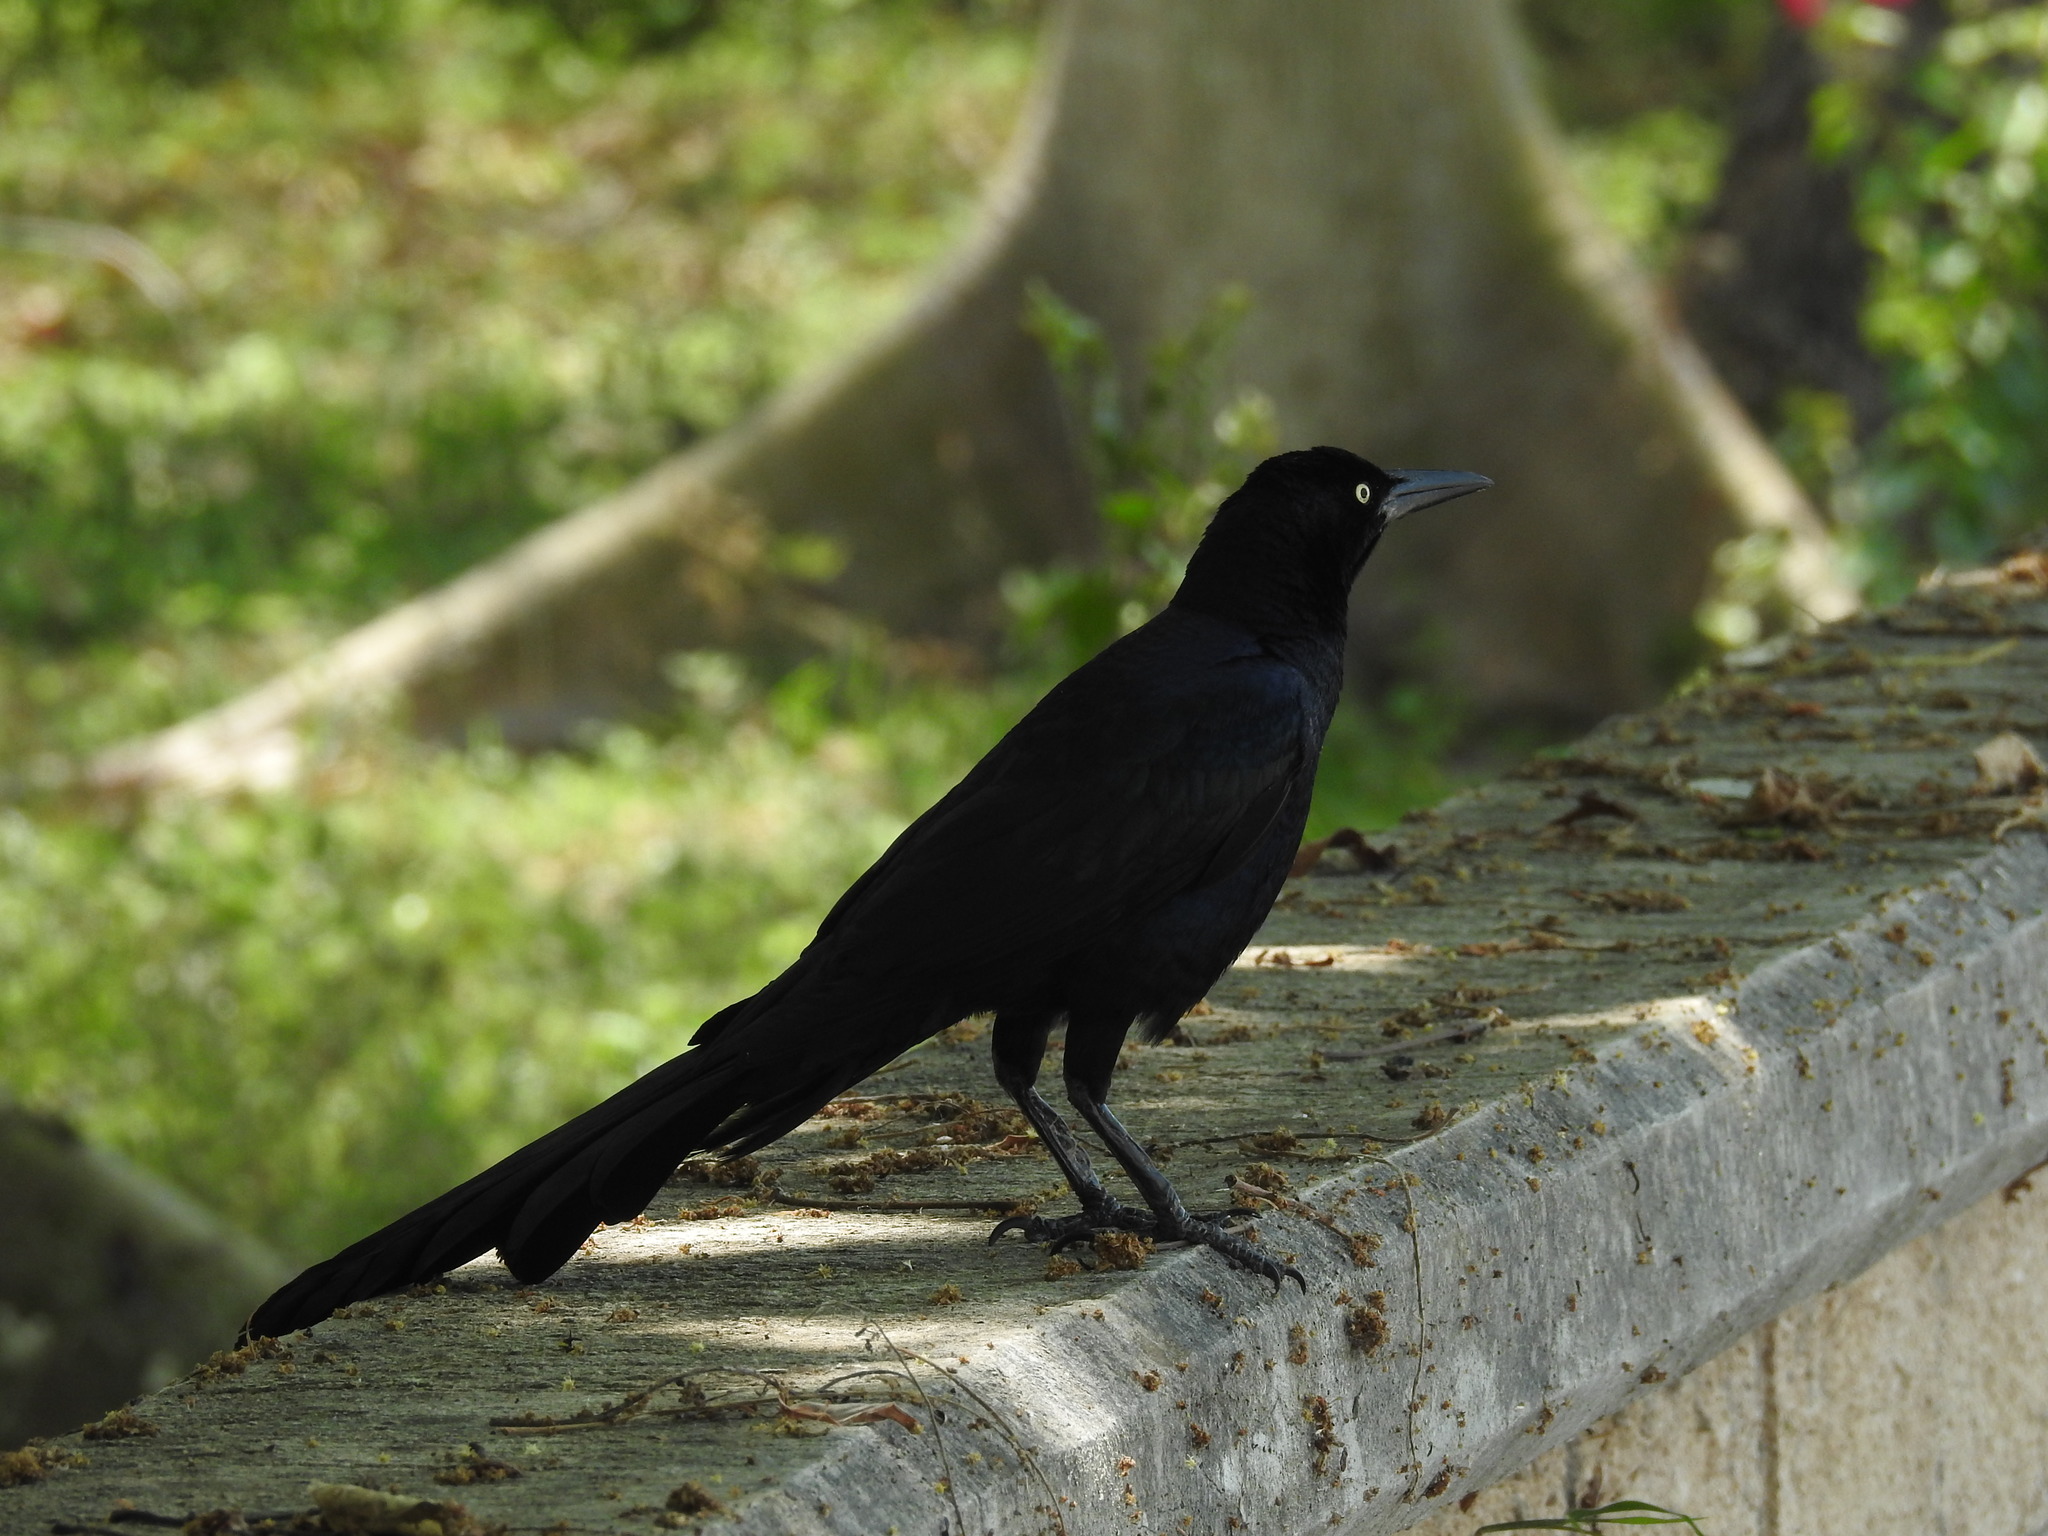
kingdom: Animalia
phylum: Chordata
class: Aves
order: Passeriformes
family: Icteridae
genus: Quiscalus
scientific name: Quiscalus mexicanus
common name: Great-tailed grackle
